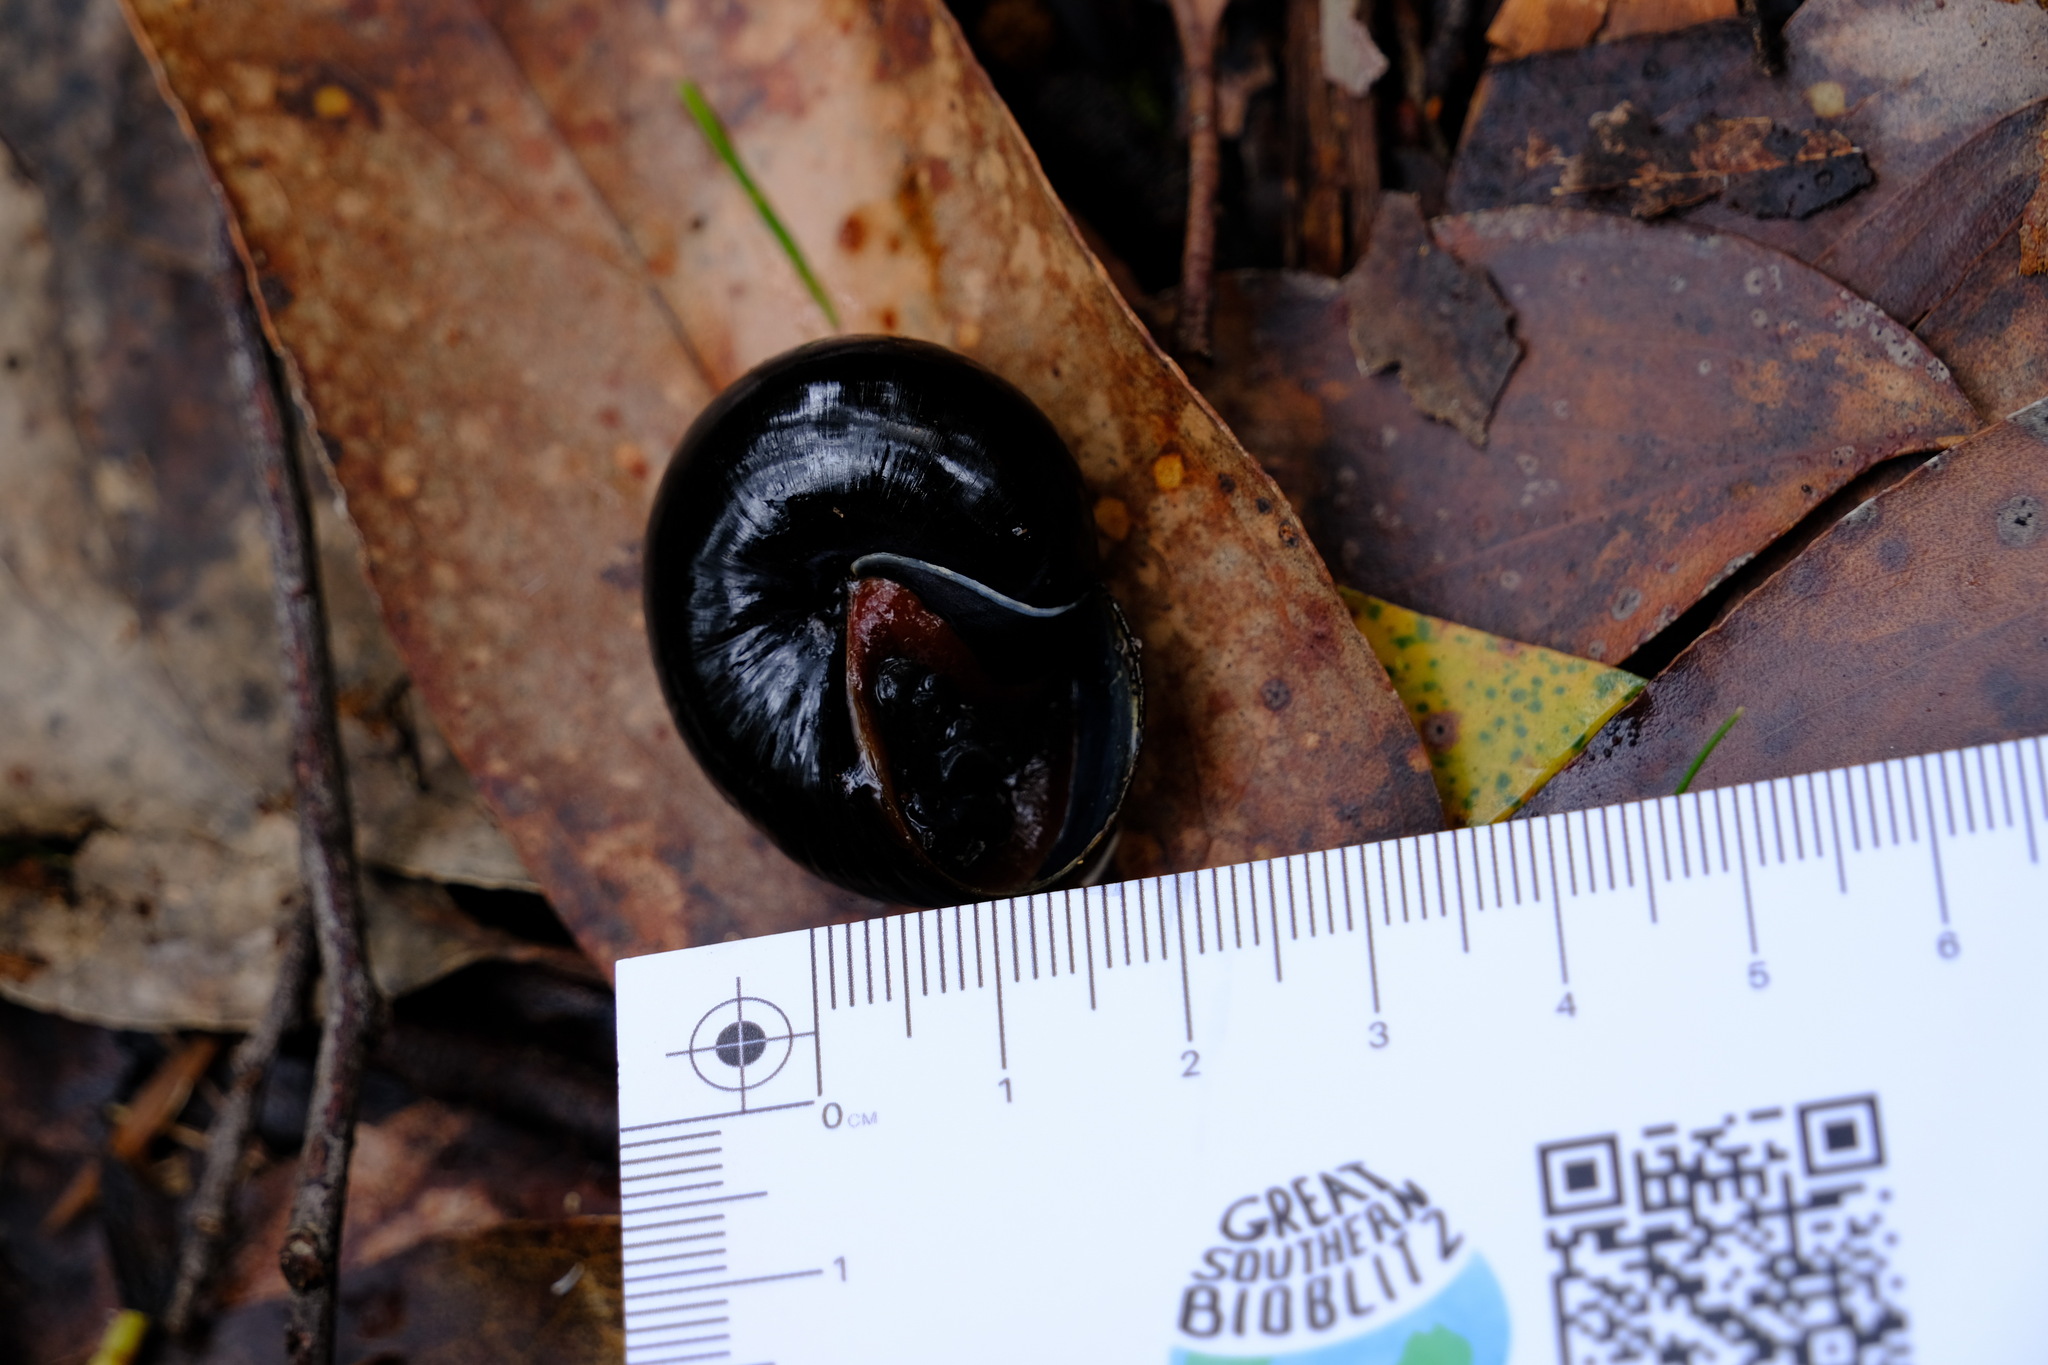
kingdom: Animalia
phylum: Mollusca
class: Gastropoda
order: Stylommatophora
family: Rhytididae
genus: Victaphanta
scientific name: Victaphanta compacta
